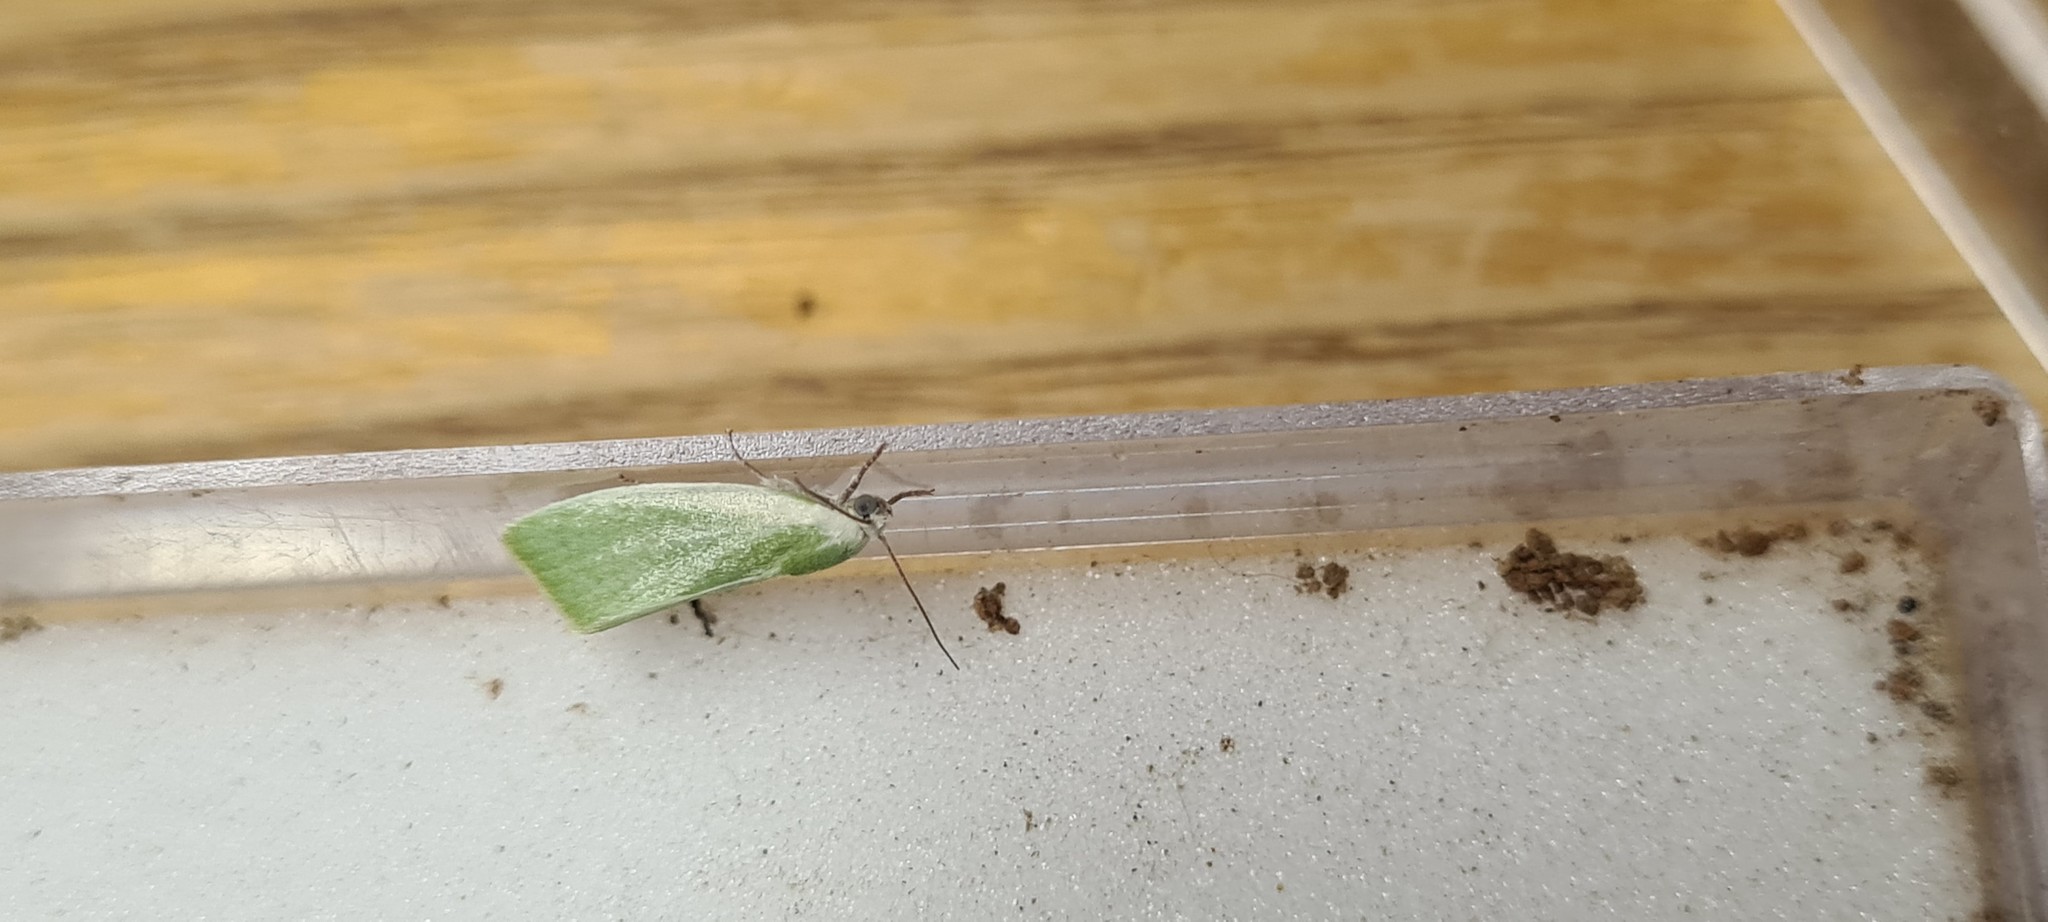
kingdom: Animalia
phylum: Arthropoda
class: Insecta
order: Lepidoptera
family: Nolidae
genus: Earias
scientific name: Earias clorana
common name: Cream-bordered green pea
